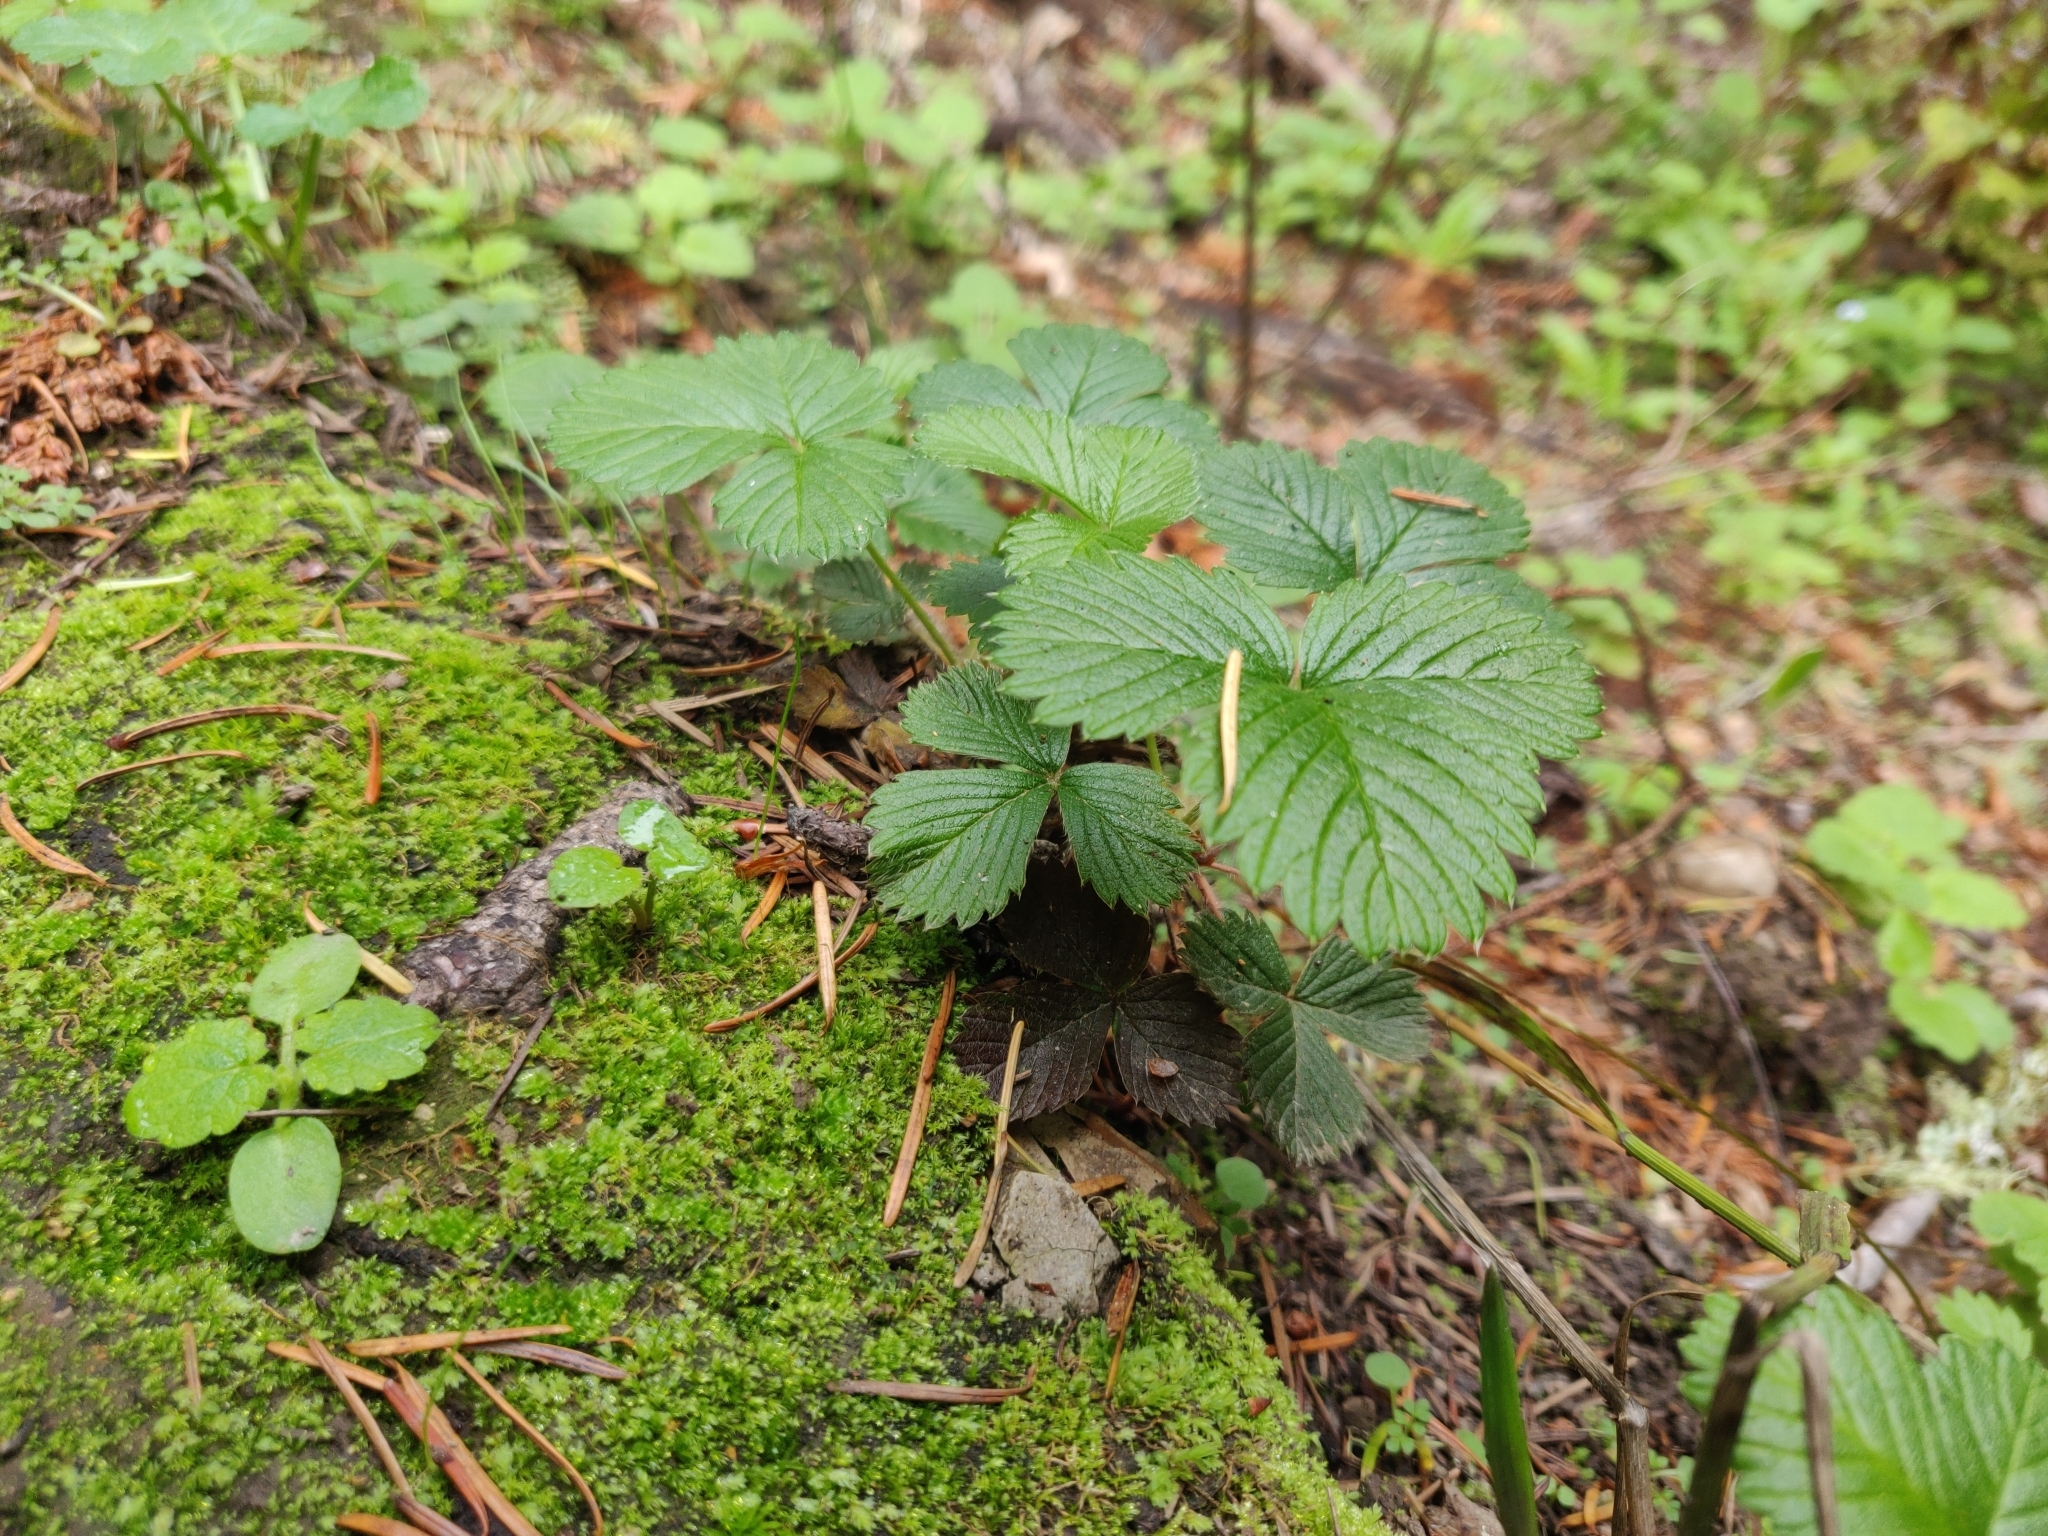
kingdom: Plantae
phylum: Tracheophyta
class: Magnoliopsida
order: Rosales
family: Rosaceae
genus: Fragaria
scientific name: Fragaria vesca
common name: Wild strawberry
